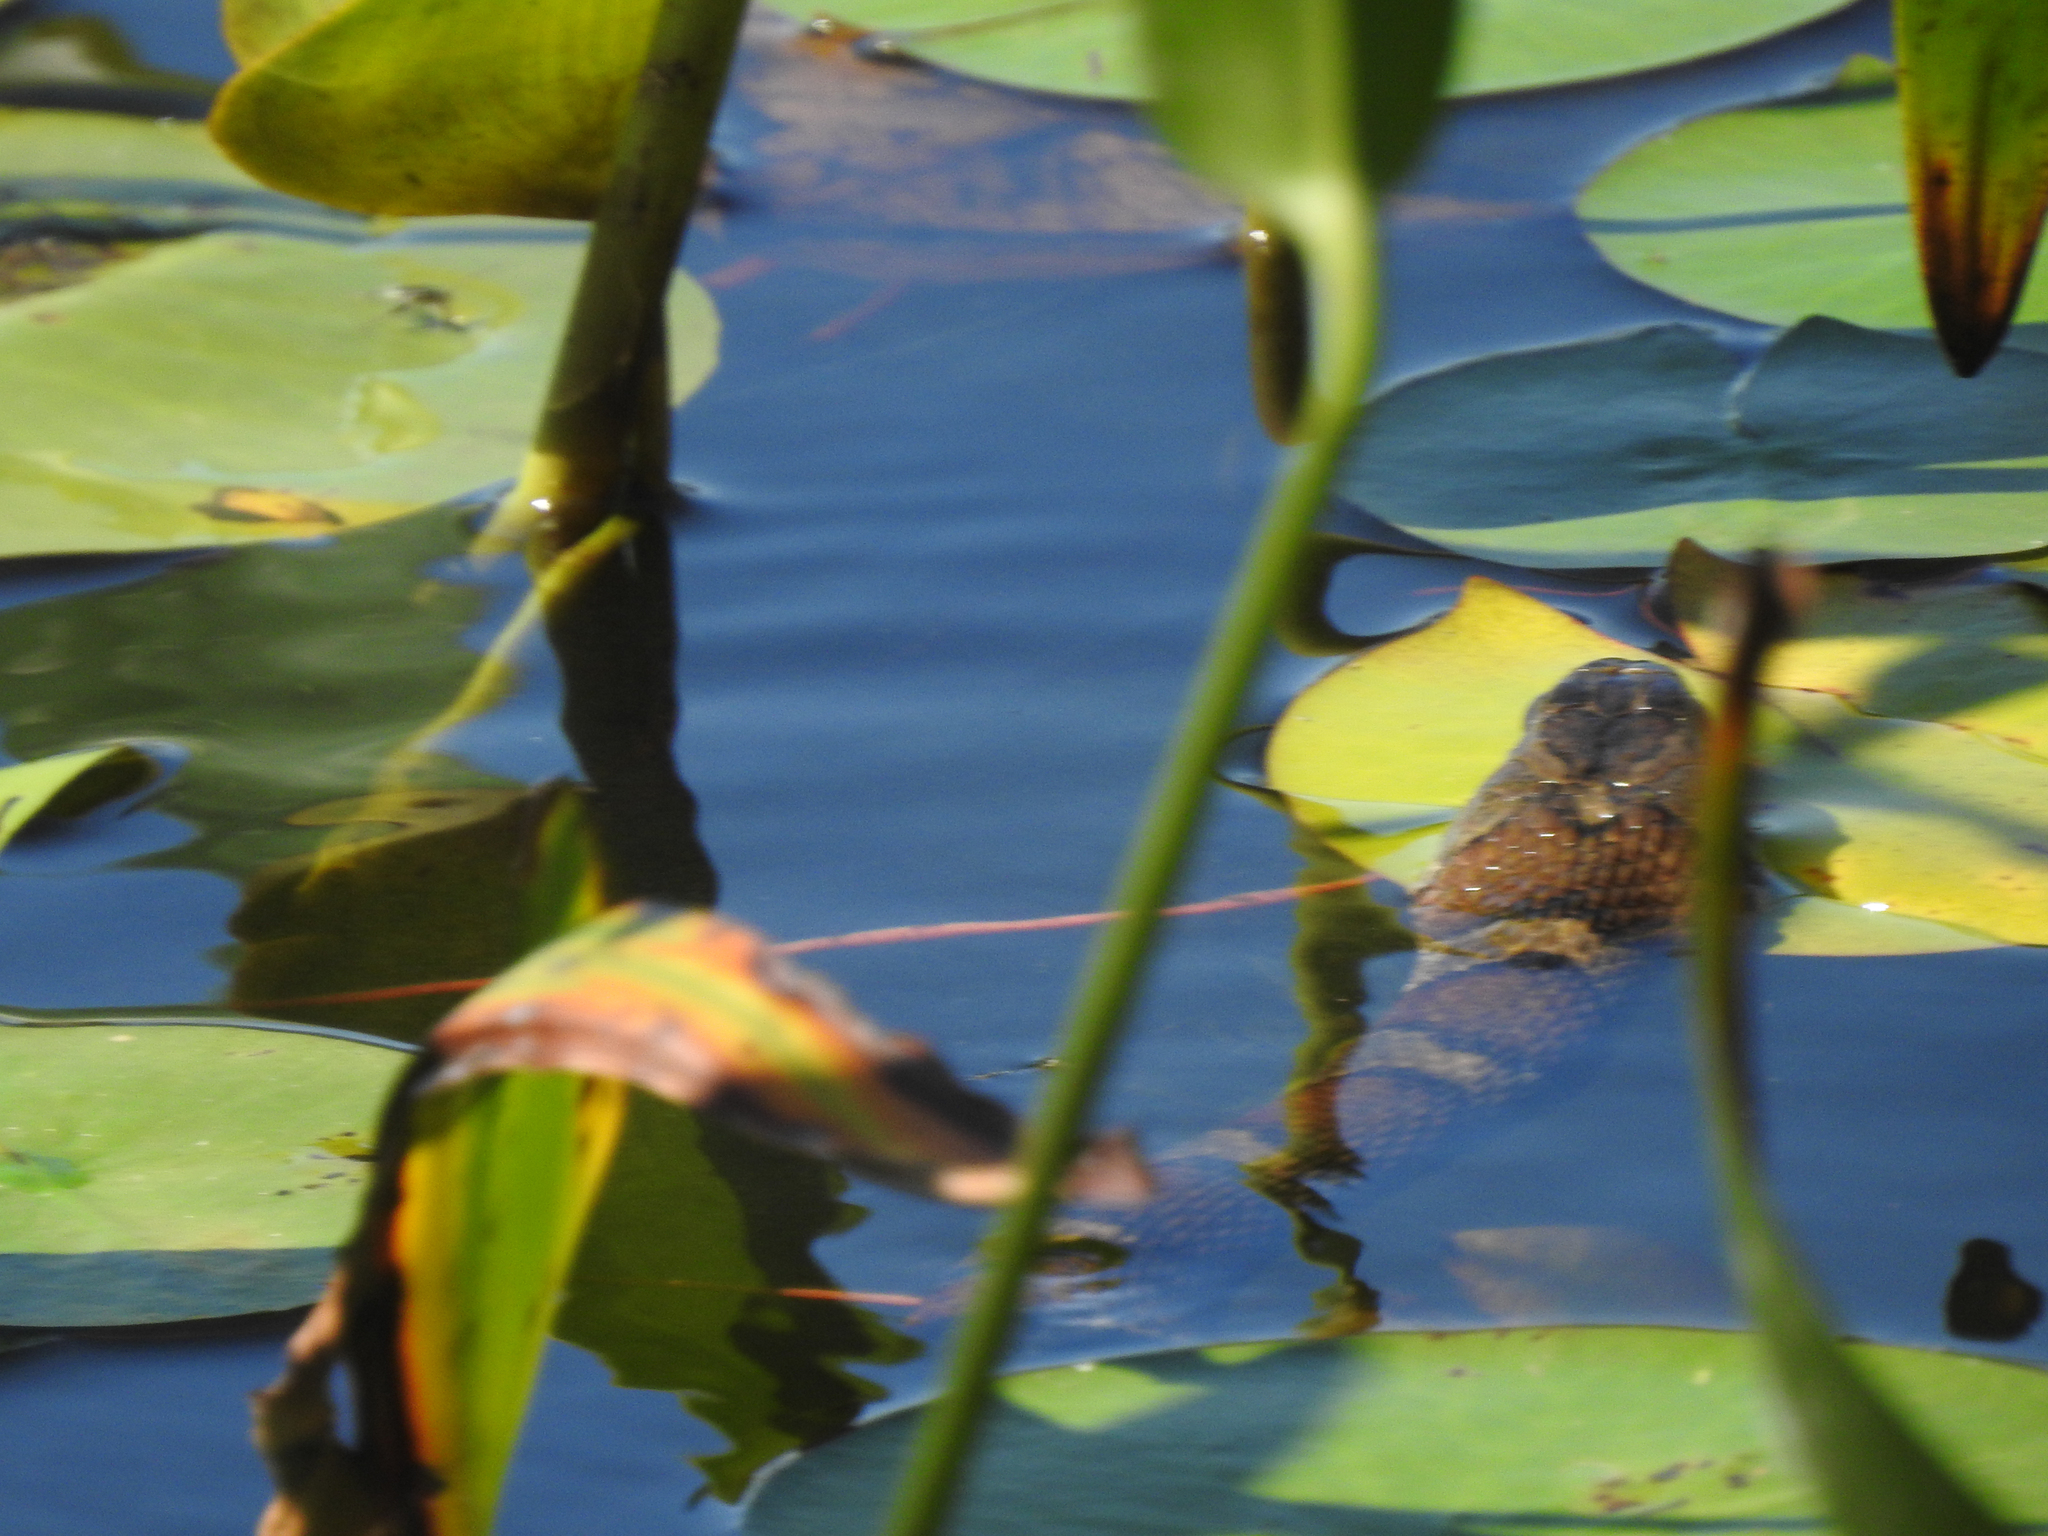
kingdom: Animalia
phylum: Chordata
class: Squamata
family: Colubridae
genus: Nerodia
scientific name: Nerodia sipedon
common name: Northern water snake
